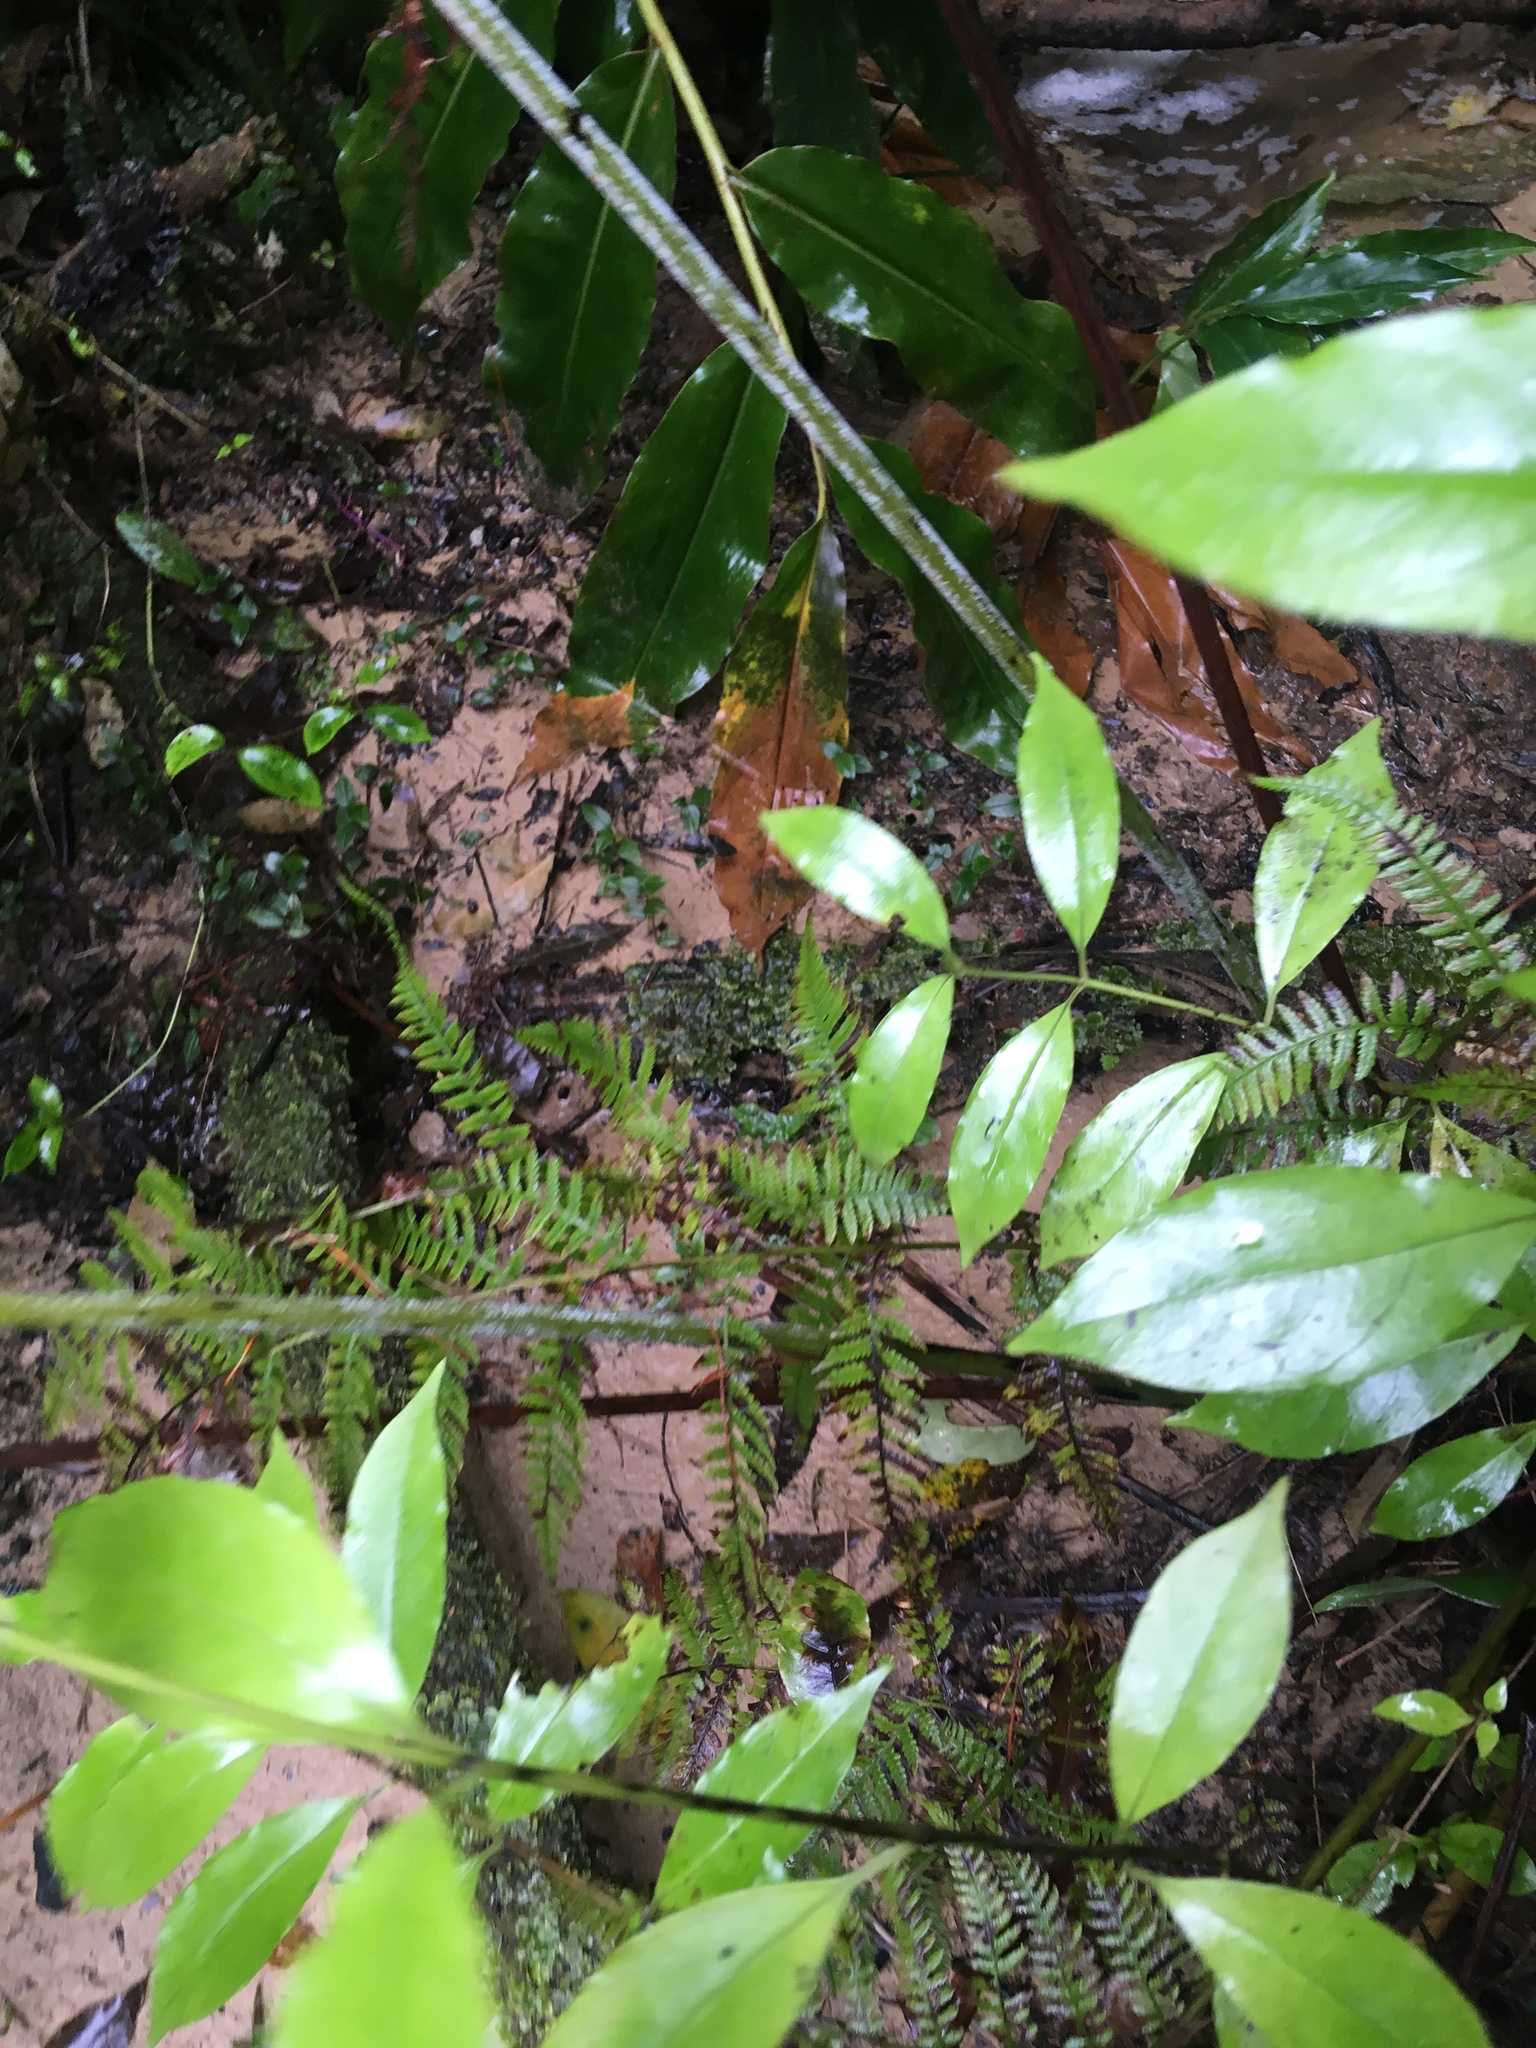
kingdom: Plantae
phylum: Tracheophyta
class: Magnoliopsida
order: Gentianales
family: Loganiaceae
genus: Geniostoma
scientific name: Geniostoma ligustrifolium
